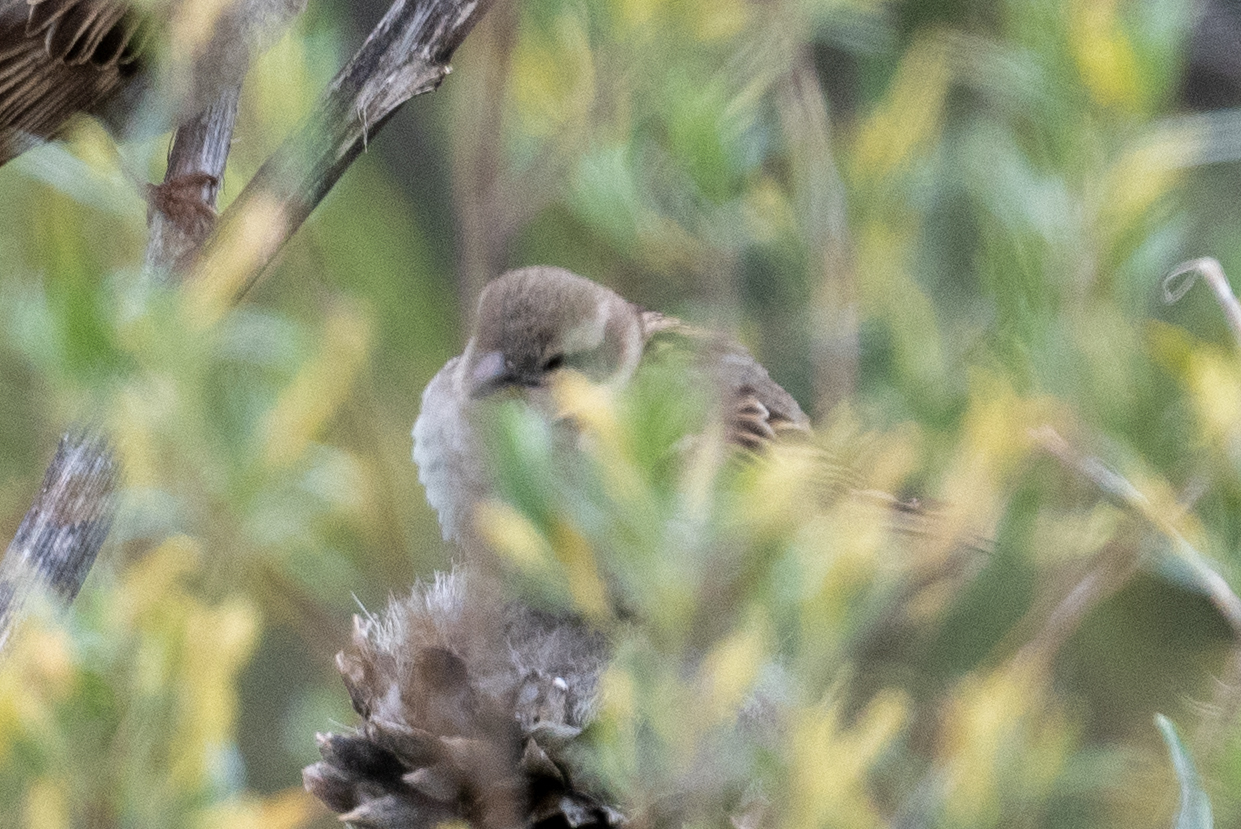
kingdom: Animalia
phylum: Chordata
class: Aves
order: Passeriformes
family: Passeridae
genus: Passer
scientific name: Passer domesticus
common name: House sparrow
